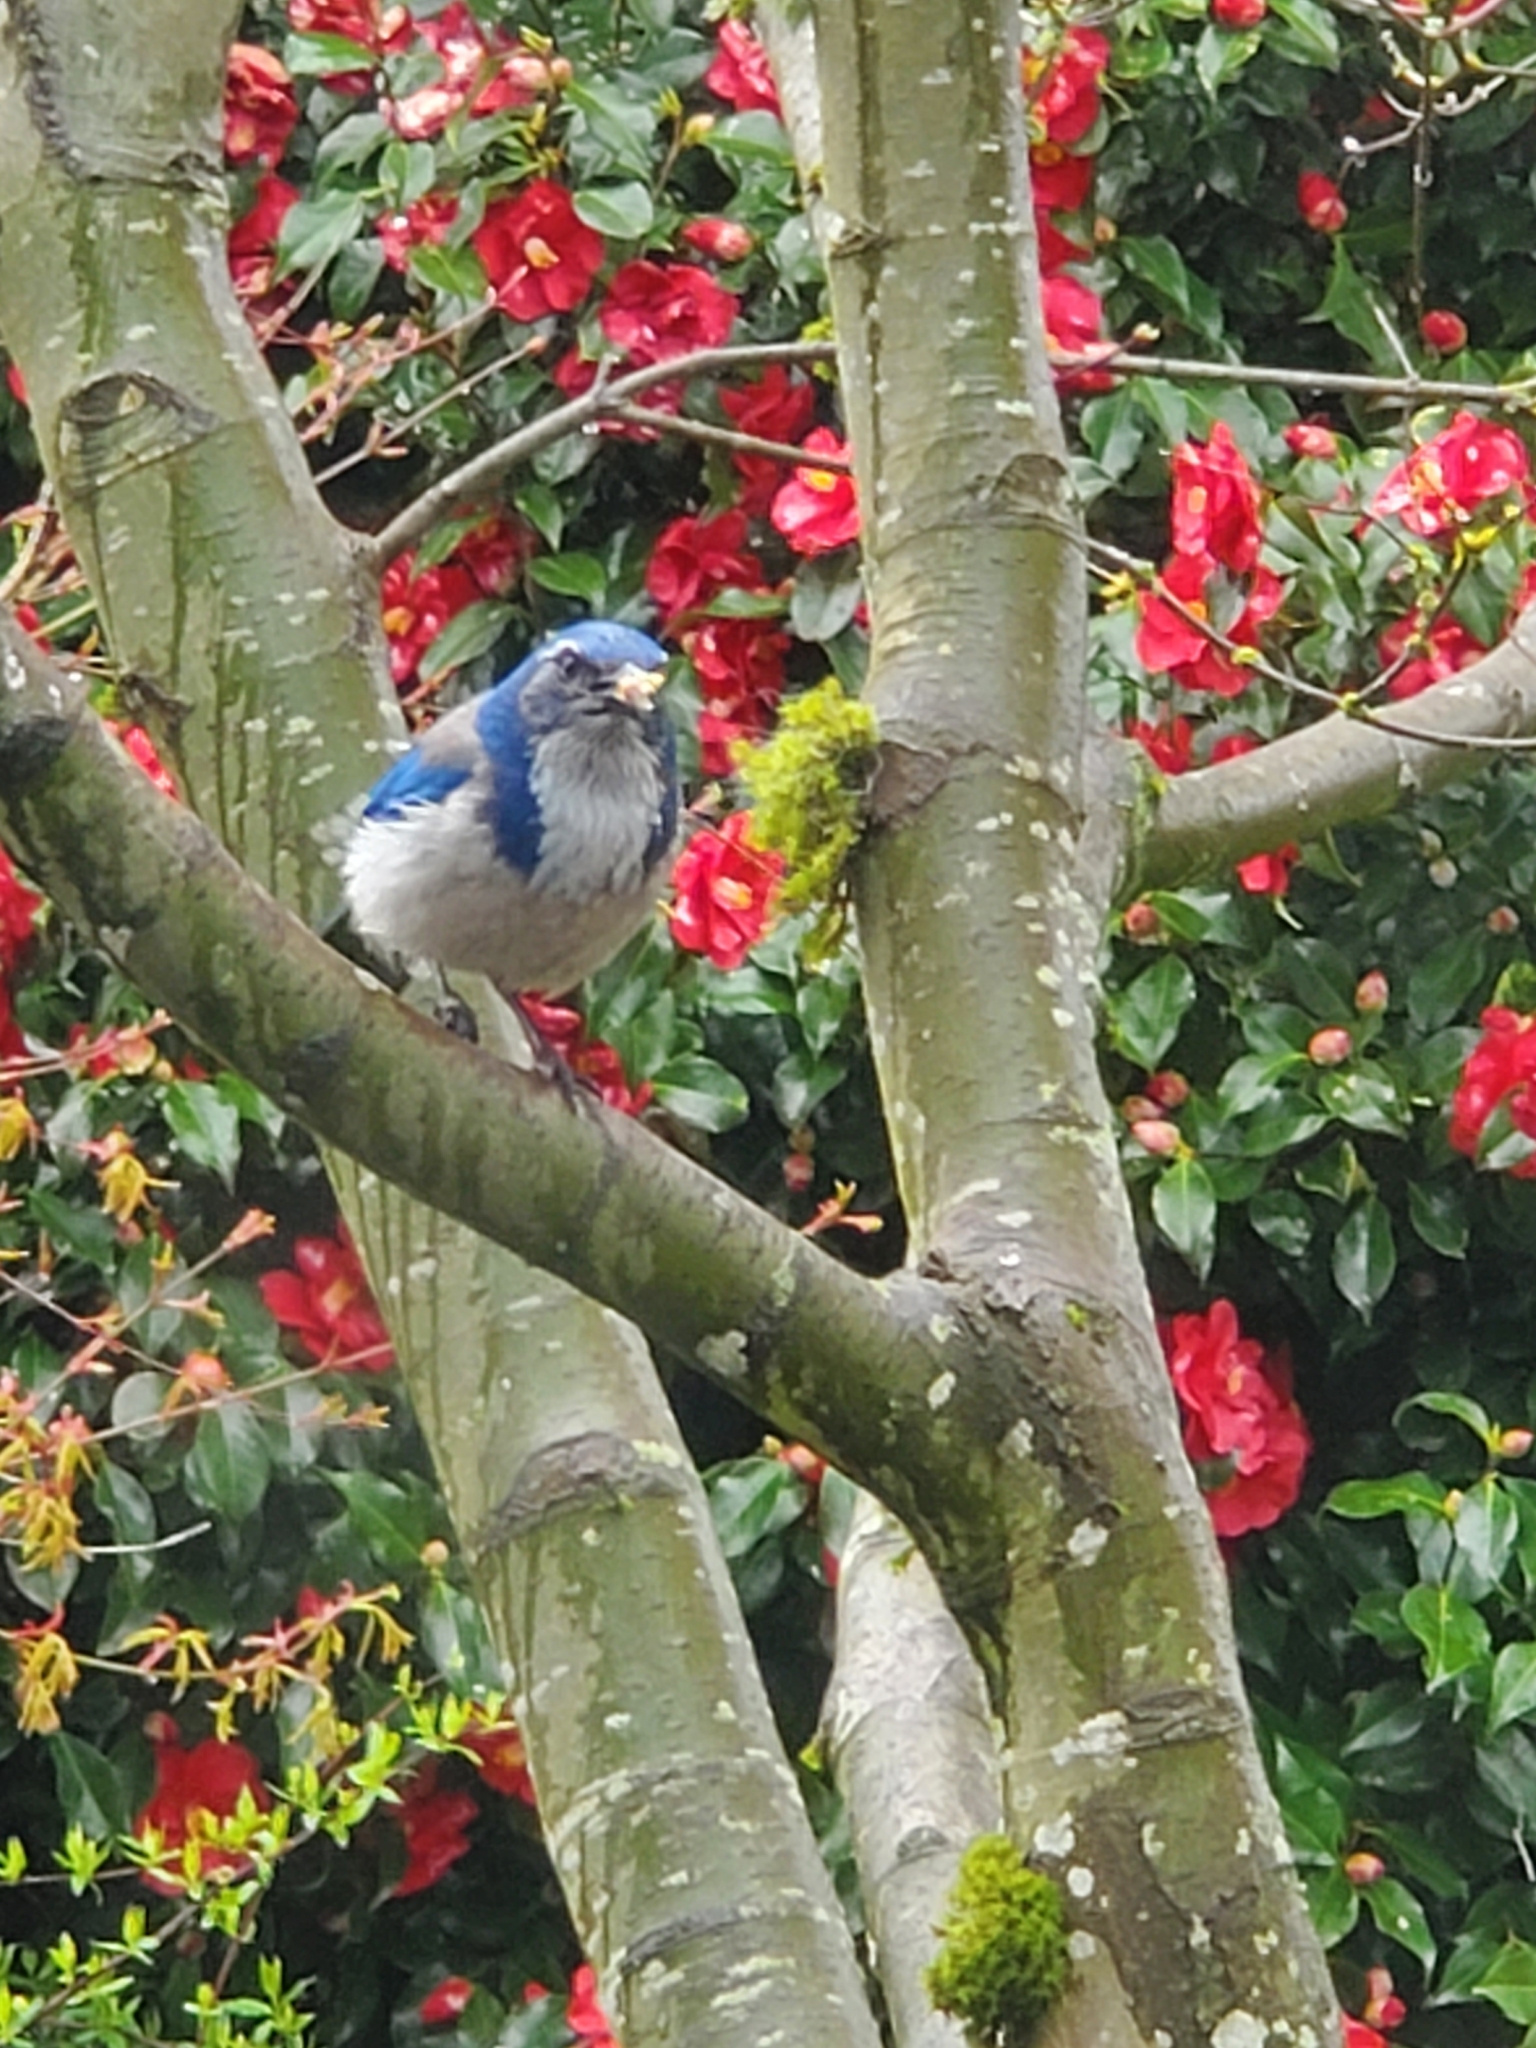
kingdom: Animalia
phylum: Chordata
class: Aves
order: Passeriformes
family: Corvidae
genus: Aphelocoma
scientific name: Aphelocoma californica
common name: California scrub-jay
